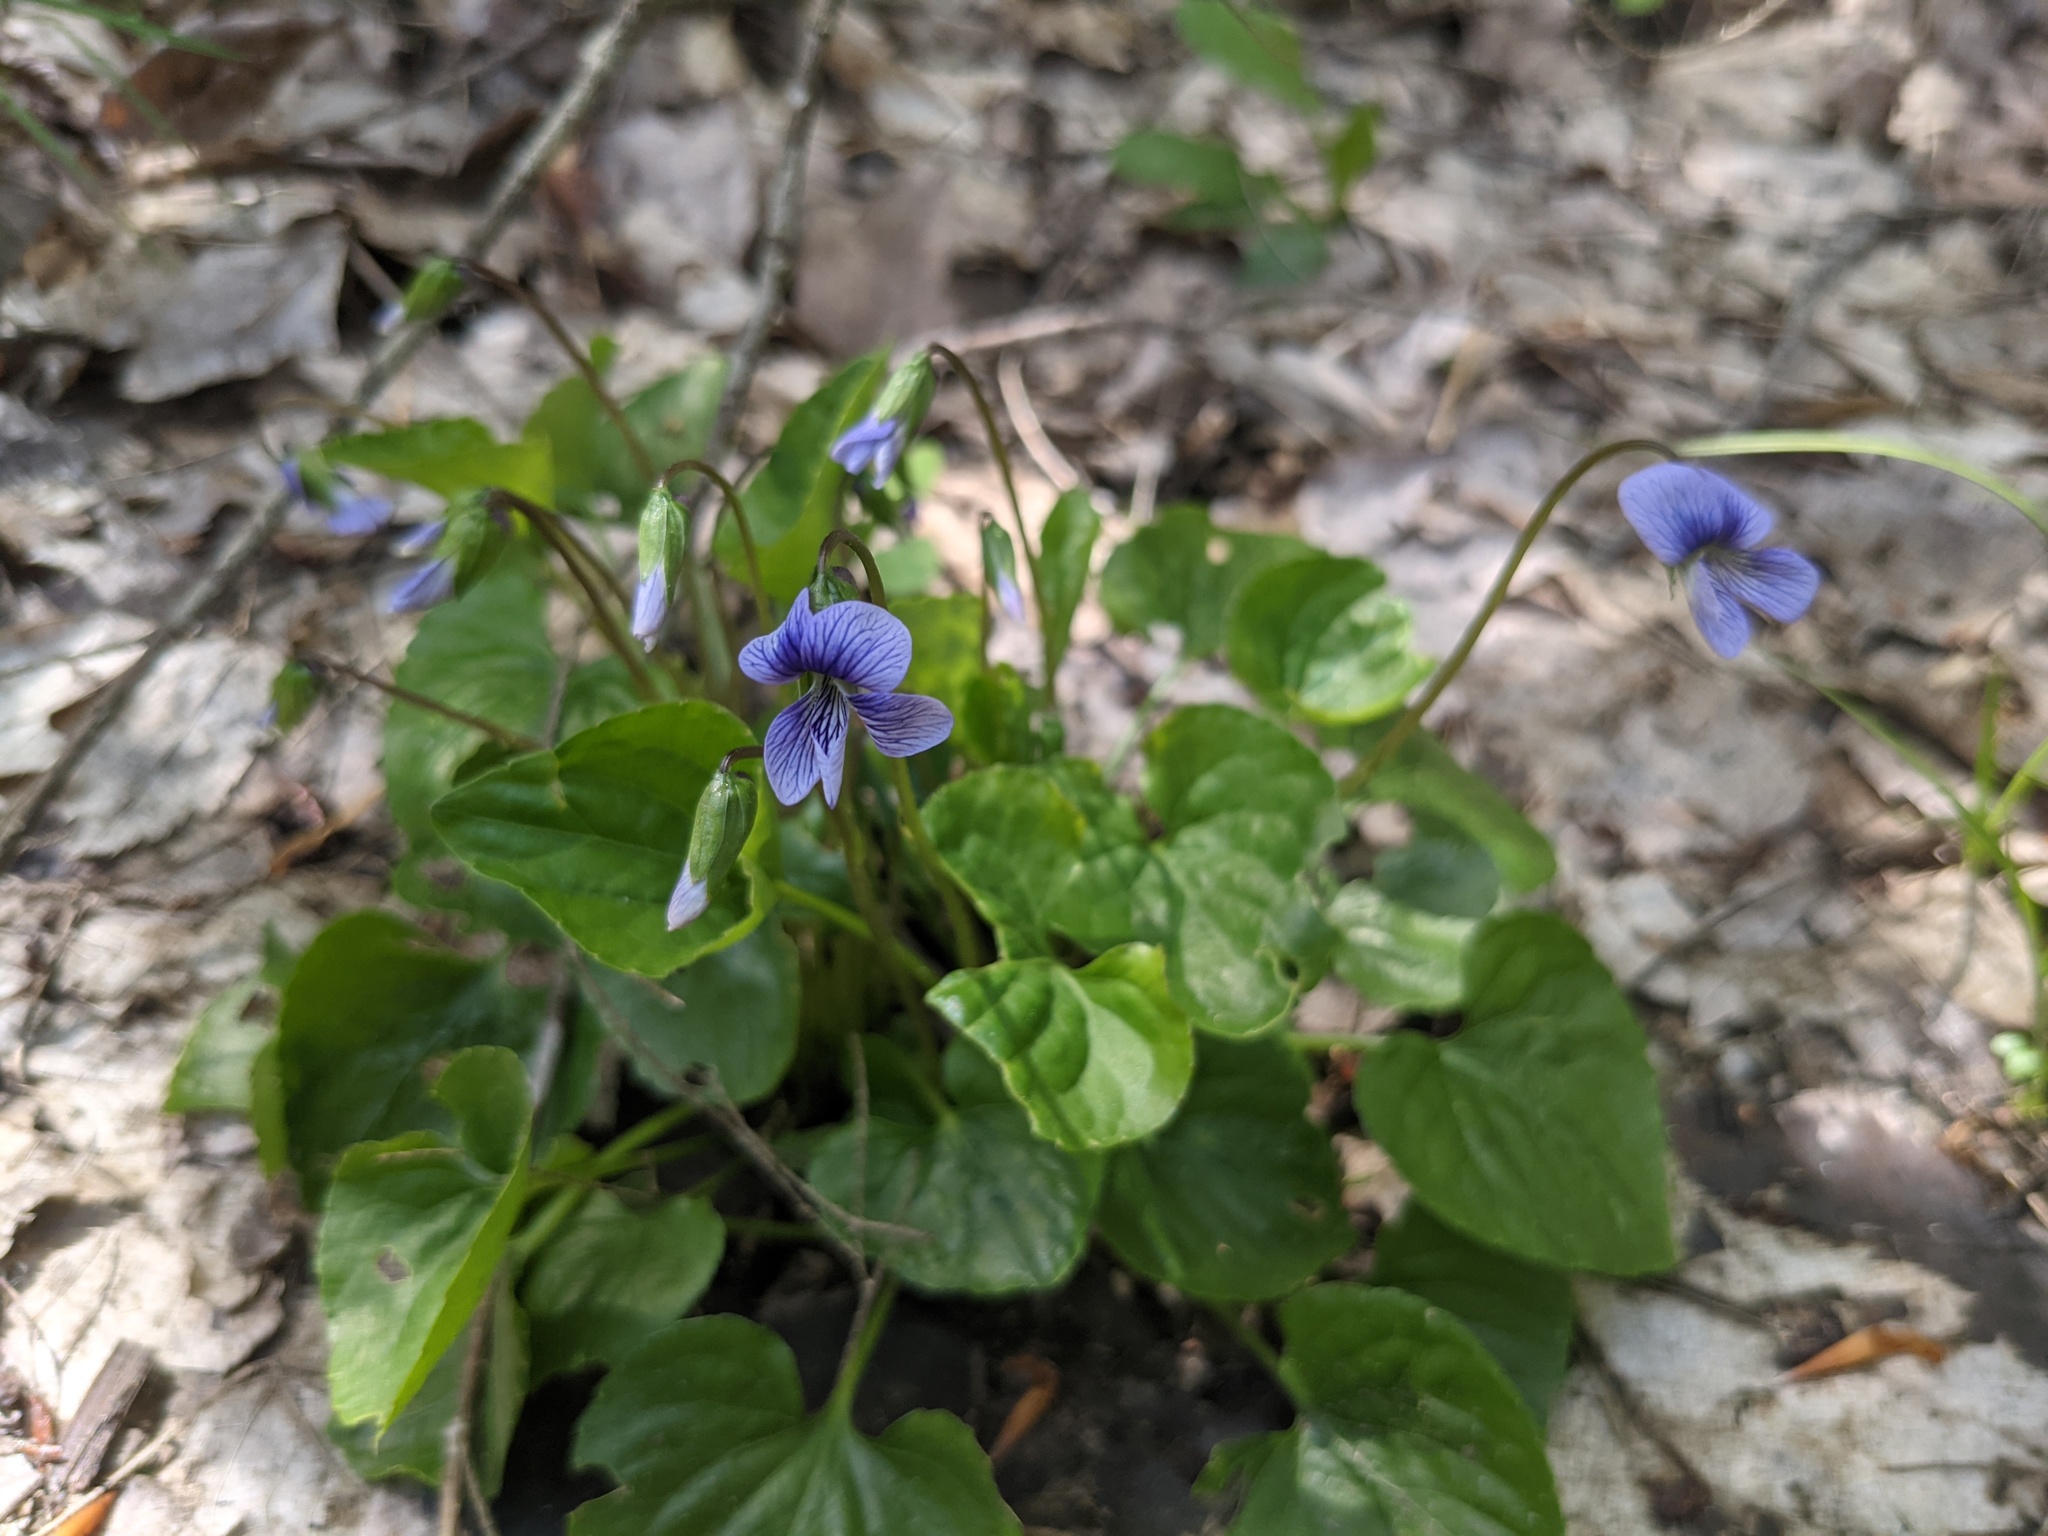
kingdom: Plantae
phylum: Tracheophyta
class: Magnoliopsida
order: Malpighiales
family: Violaceae
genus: Viola
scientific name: Viola cucullata
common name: Marsh blue violet
